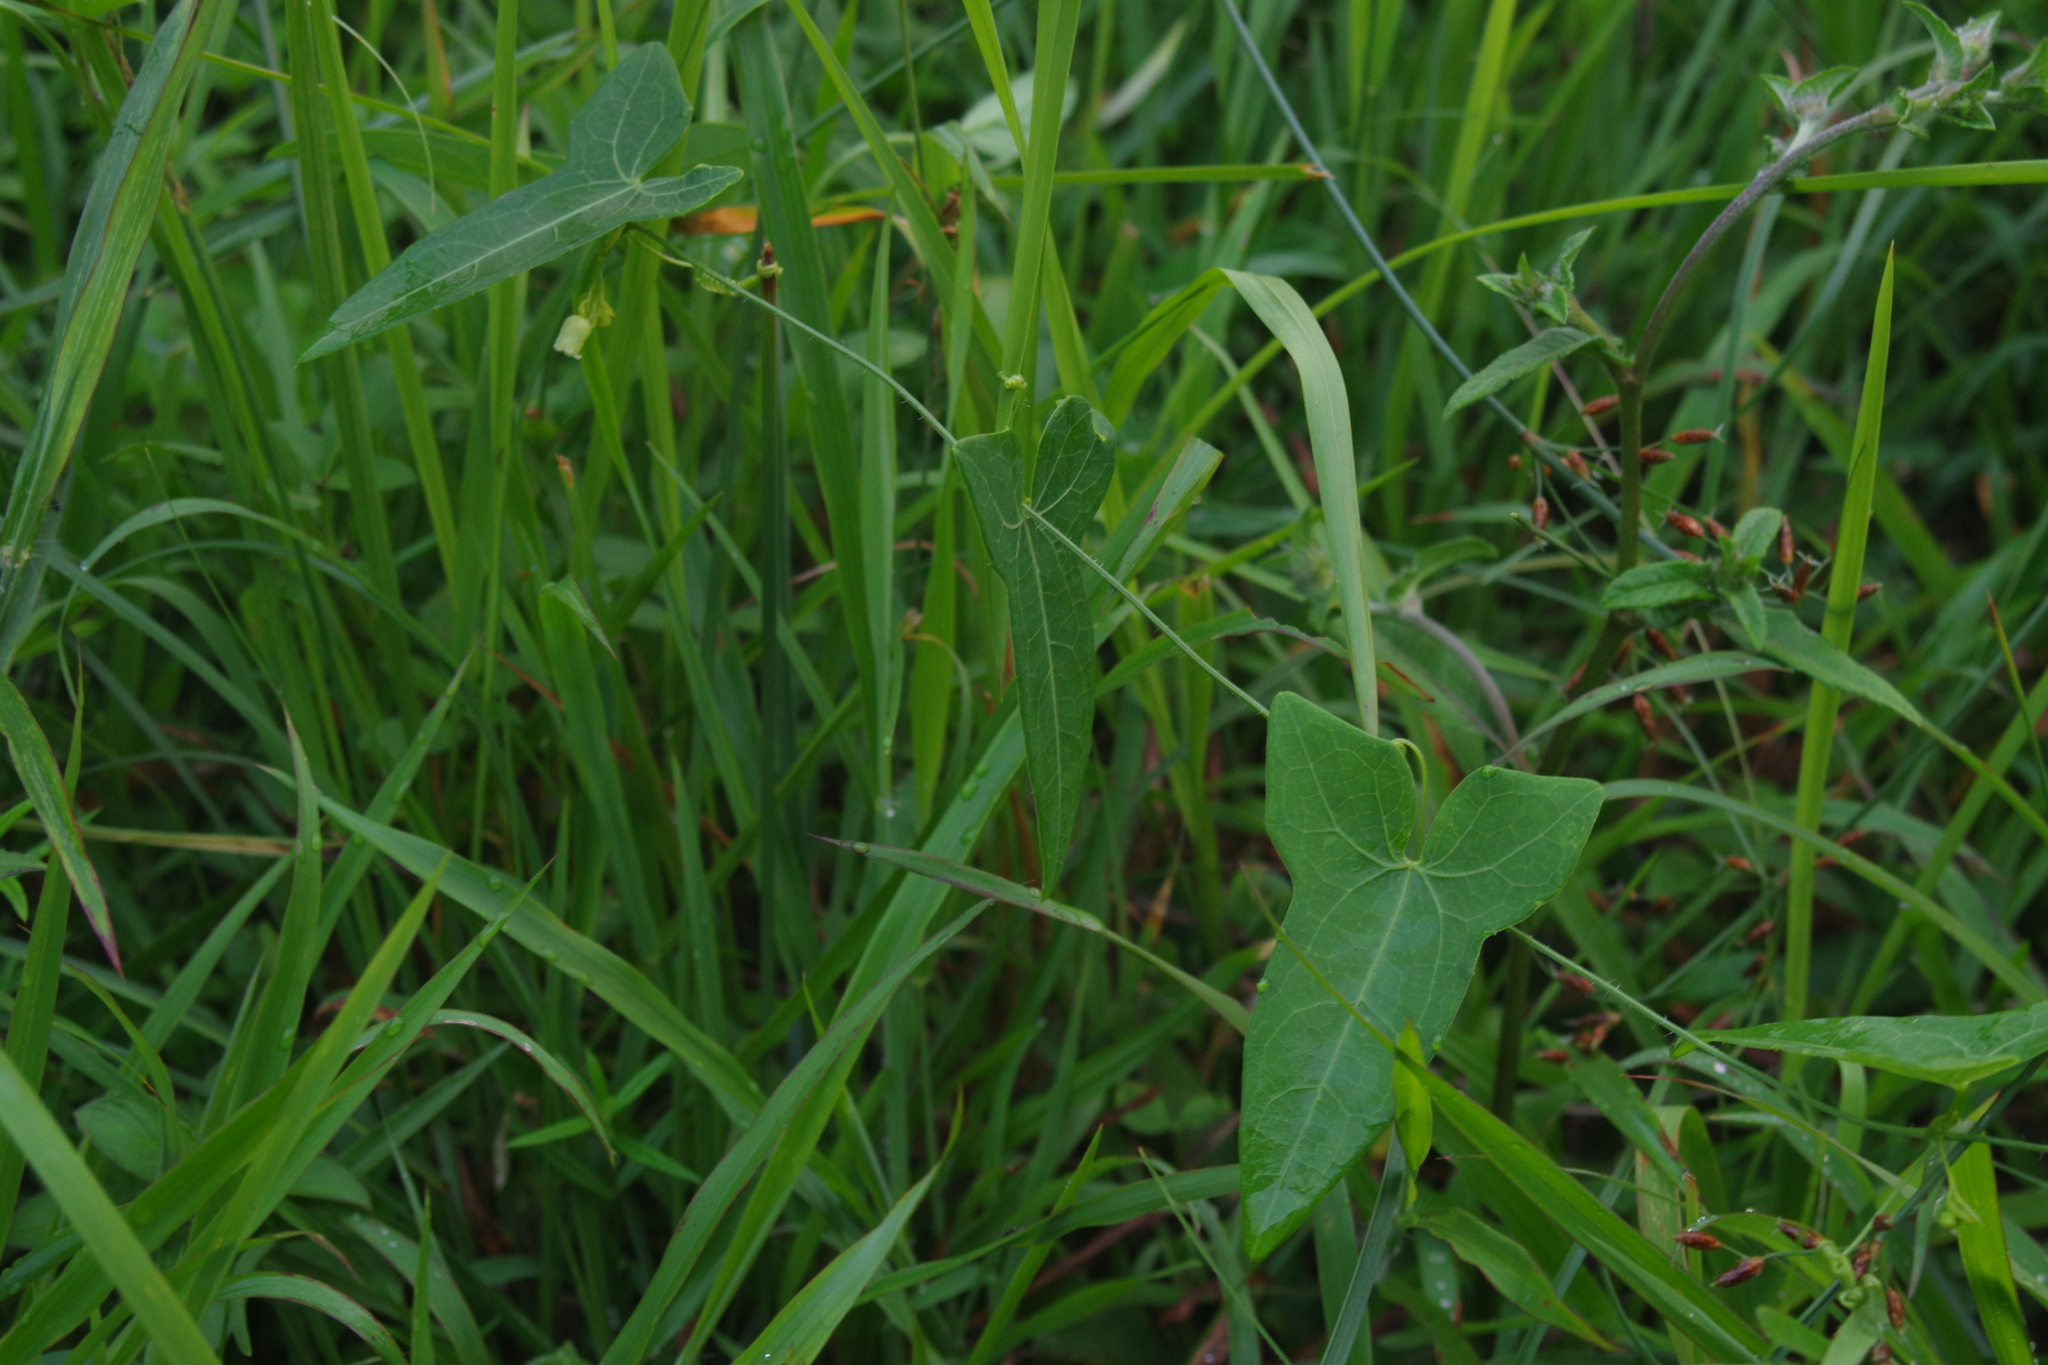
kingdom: Plantae
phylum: Tracheophyta
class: Magnoliopsida
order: Cucurbitales
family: Cucurbitaceae
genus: Solena
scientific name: Solena amplexicaulis
